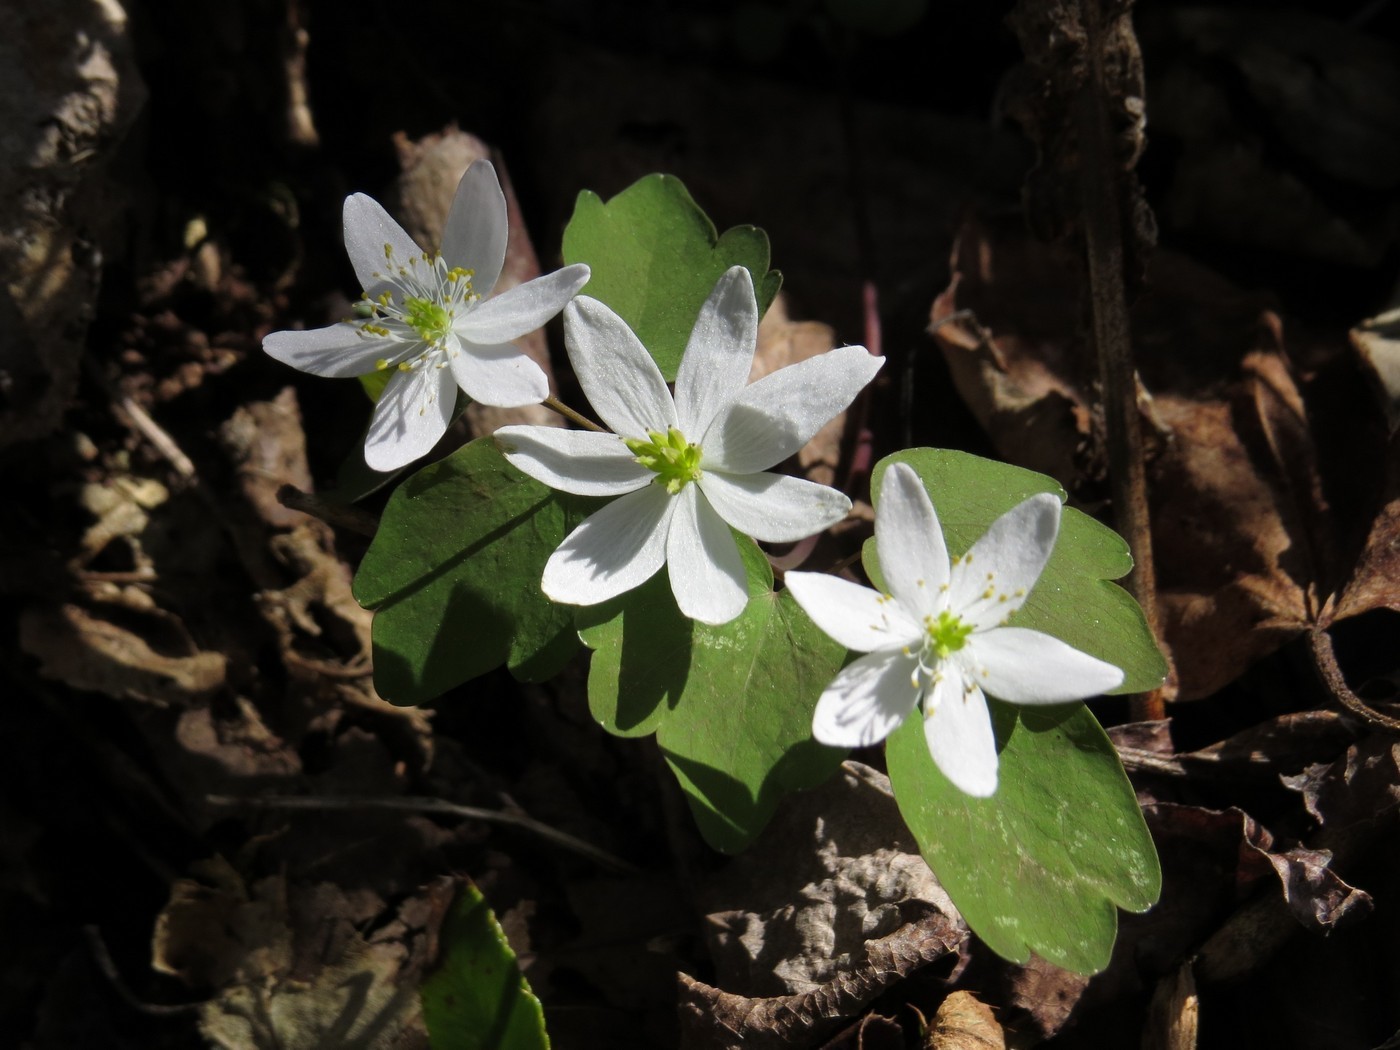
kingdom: Plantae
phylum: Tracheophyta
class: Magnoliopsida
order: Ranunculales
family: Ranunculaceae
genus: Thalictrum
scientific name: Thalictrum thalictroides
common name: Rue-anemone
